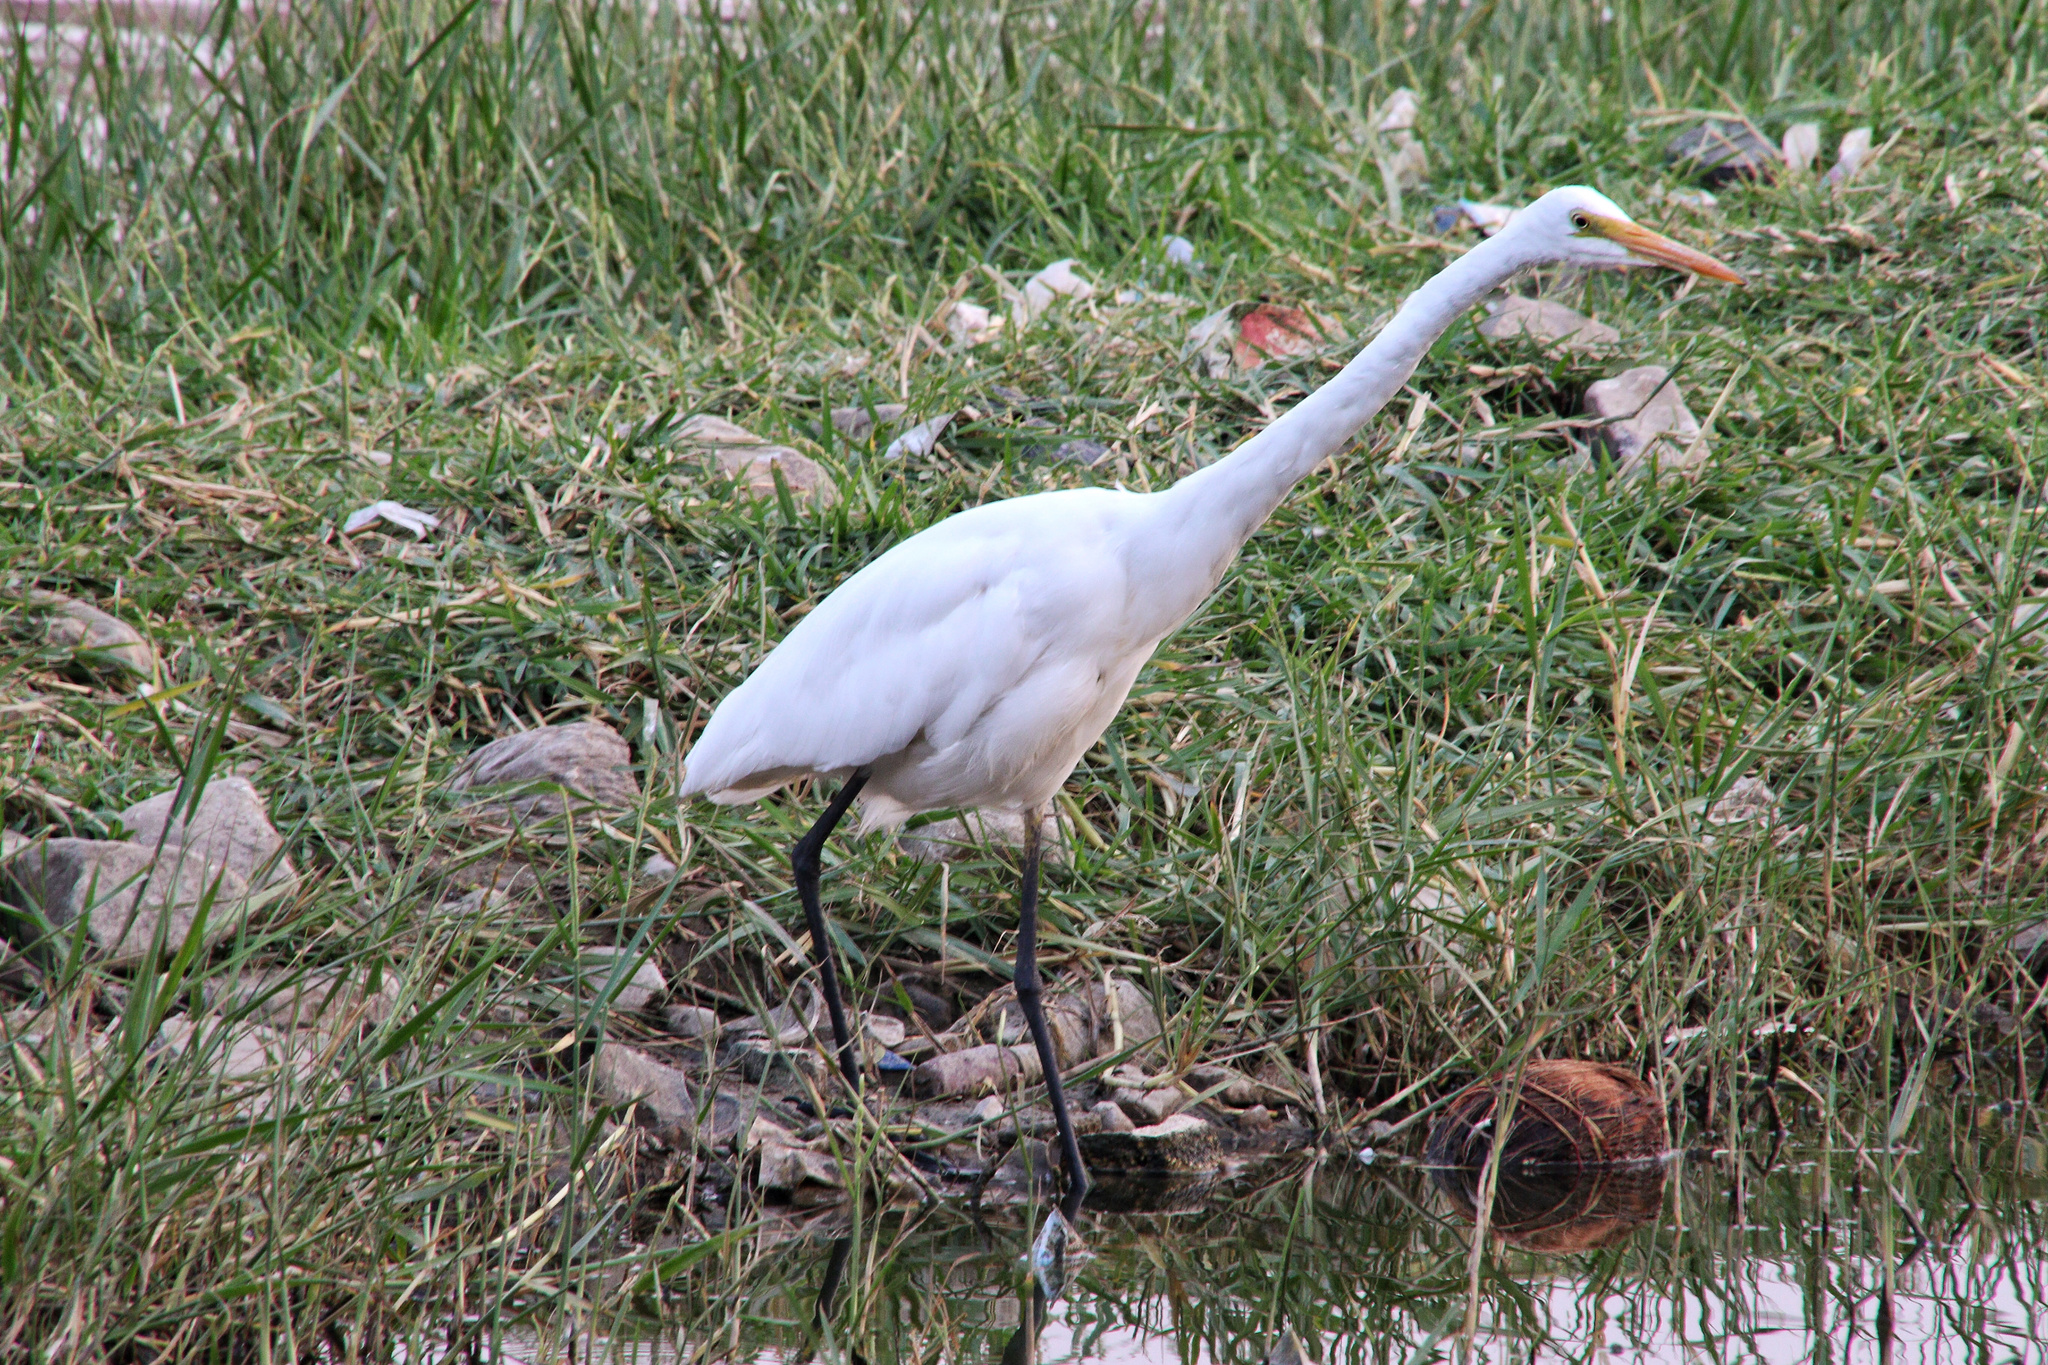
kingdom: Animalia
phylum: Chordata
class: Aves
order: Pelecaniformes
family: Ardeidae
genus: Ardea
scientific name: Ardea alba
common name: Great egret
